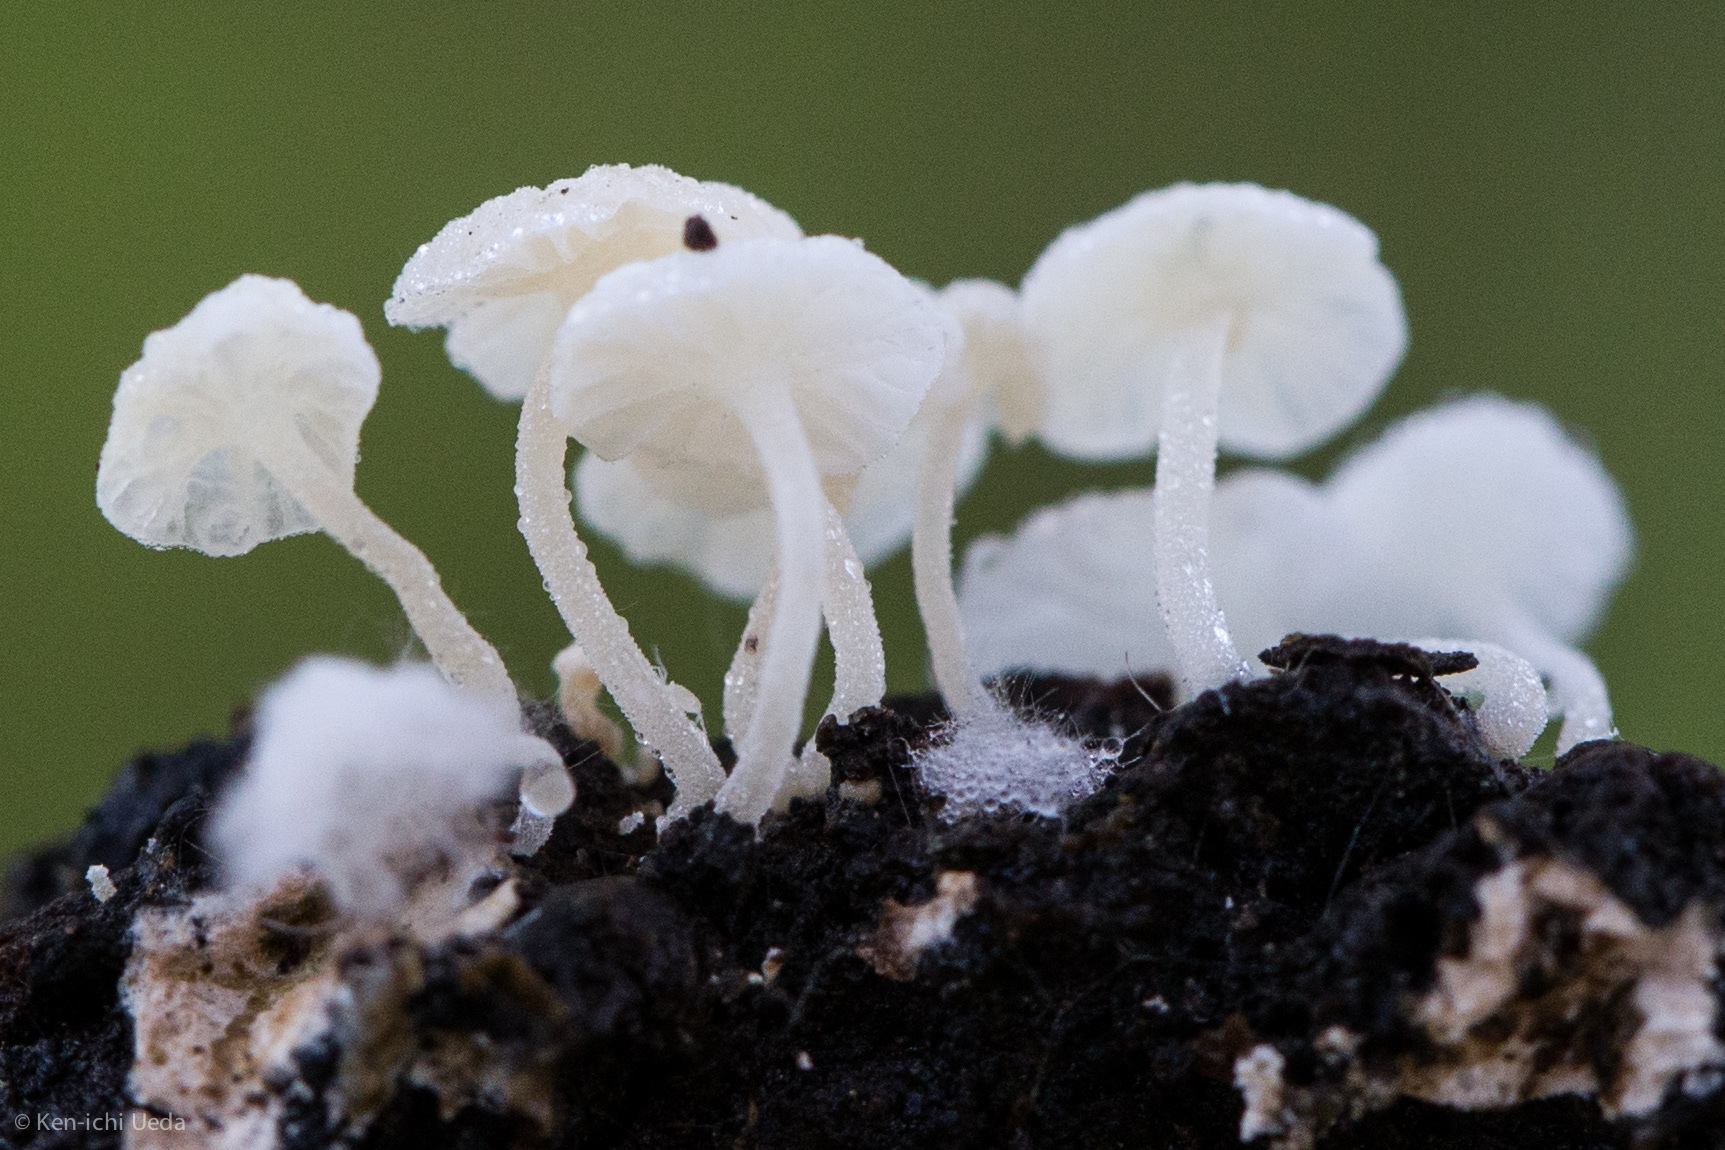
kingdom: Fungi
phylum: Basidiomycota
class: Agaricomycetes
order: Agaricales
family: Omphalotaceae
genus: Marasmiellus
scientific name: Marasmiellus candidus
